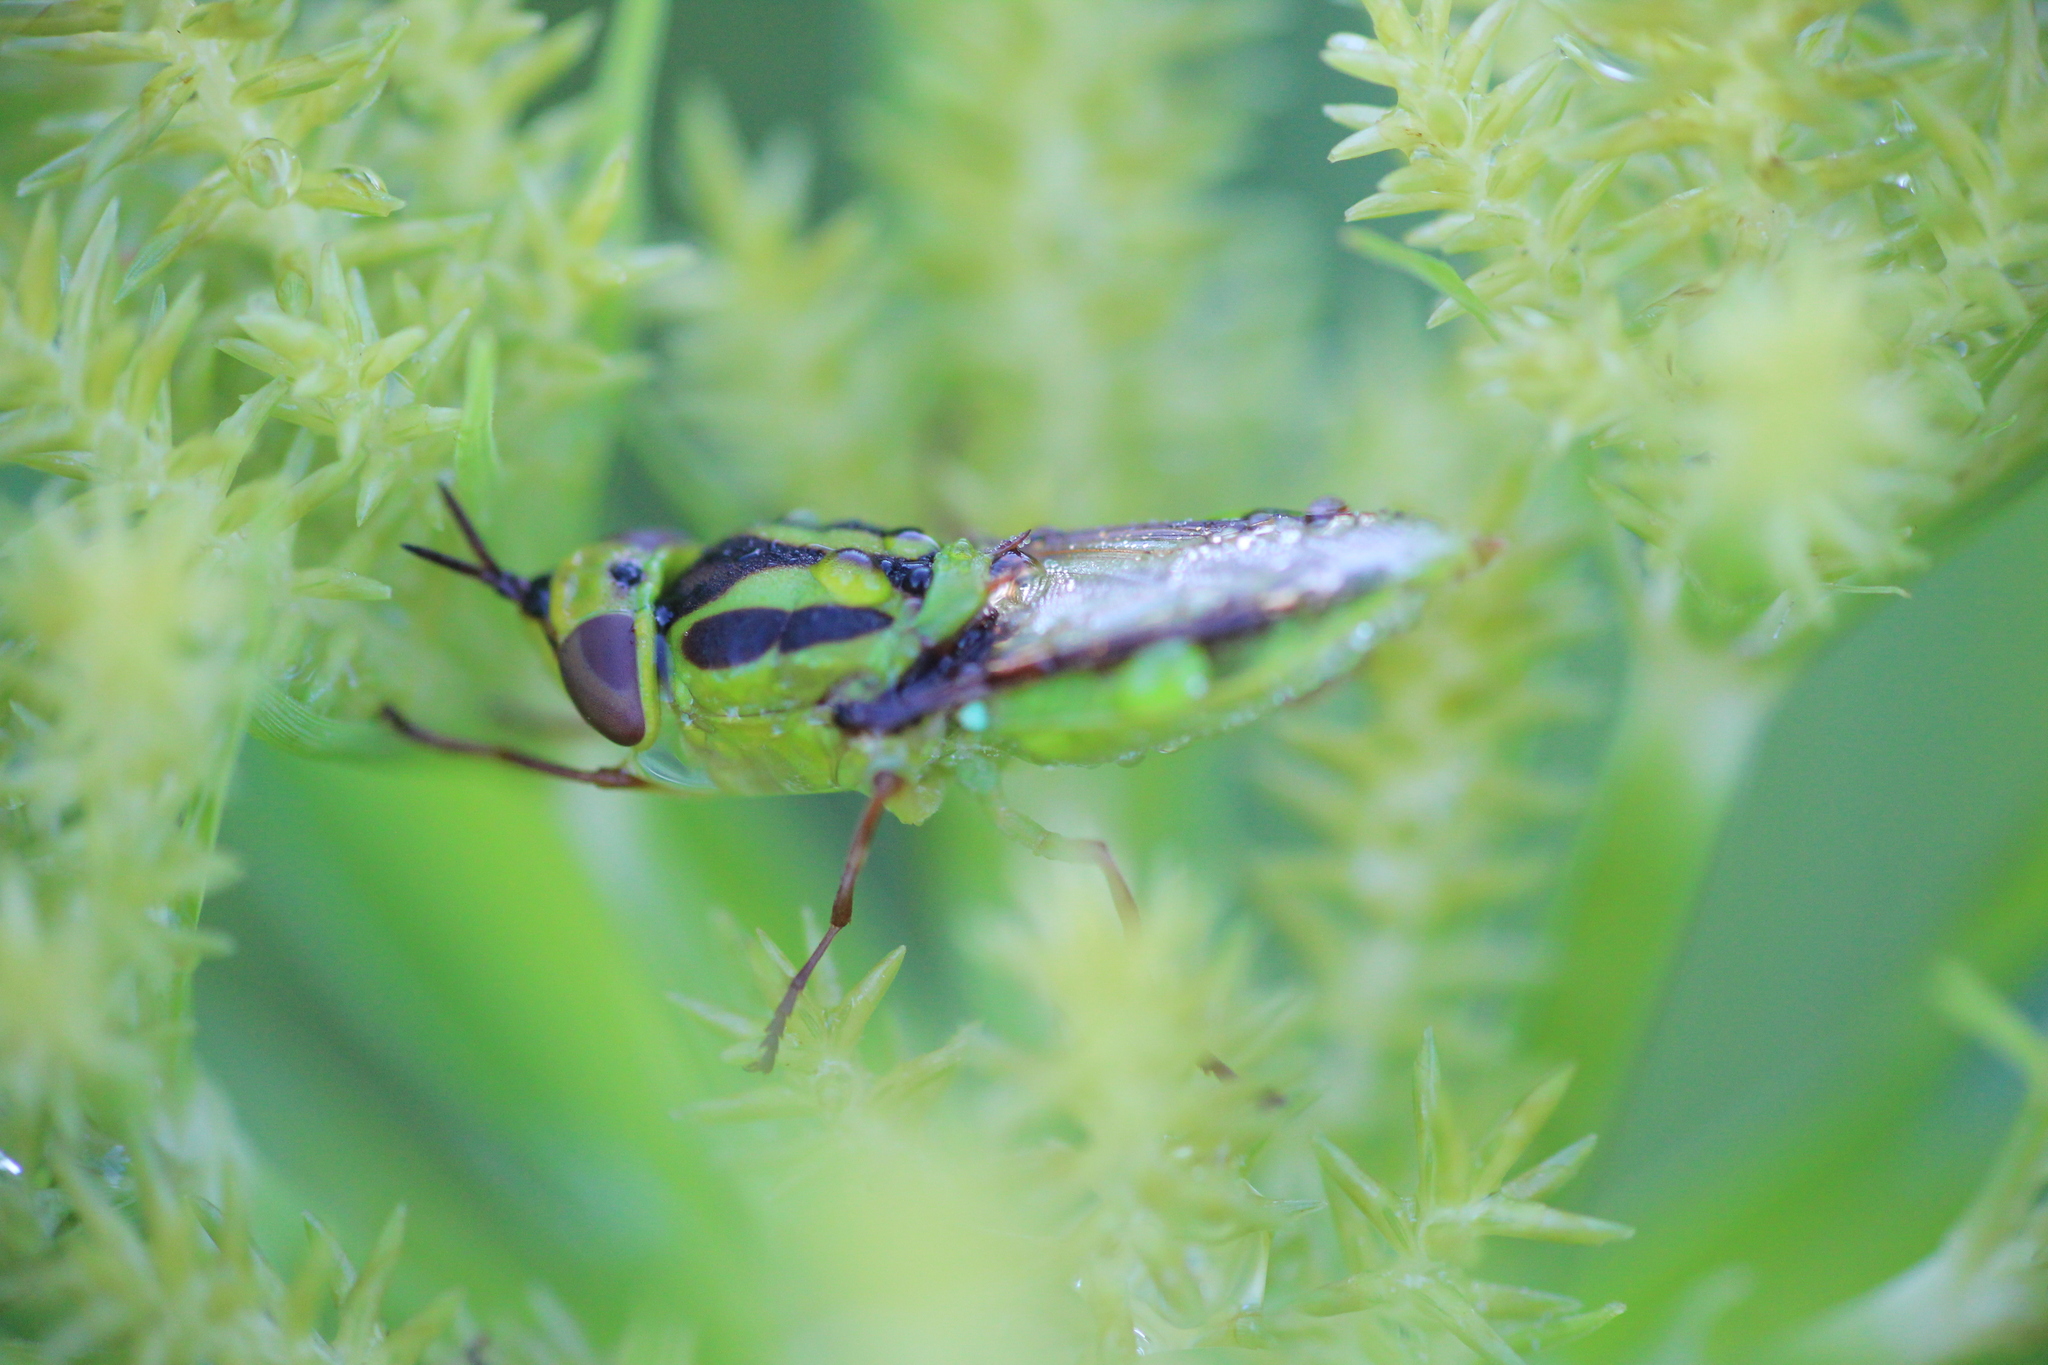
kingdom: Animalia
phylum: Arthropoda
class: Insecta
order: Diptera
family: Stratiomyidae
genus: Hedriodiscus
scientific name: Hedriodiscus pulcher
